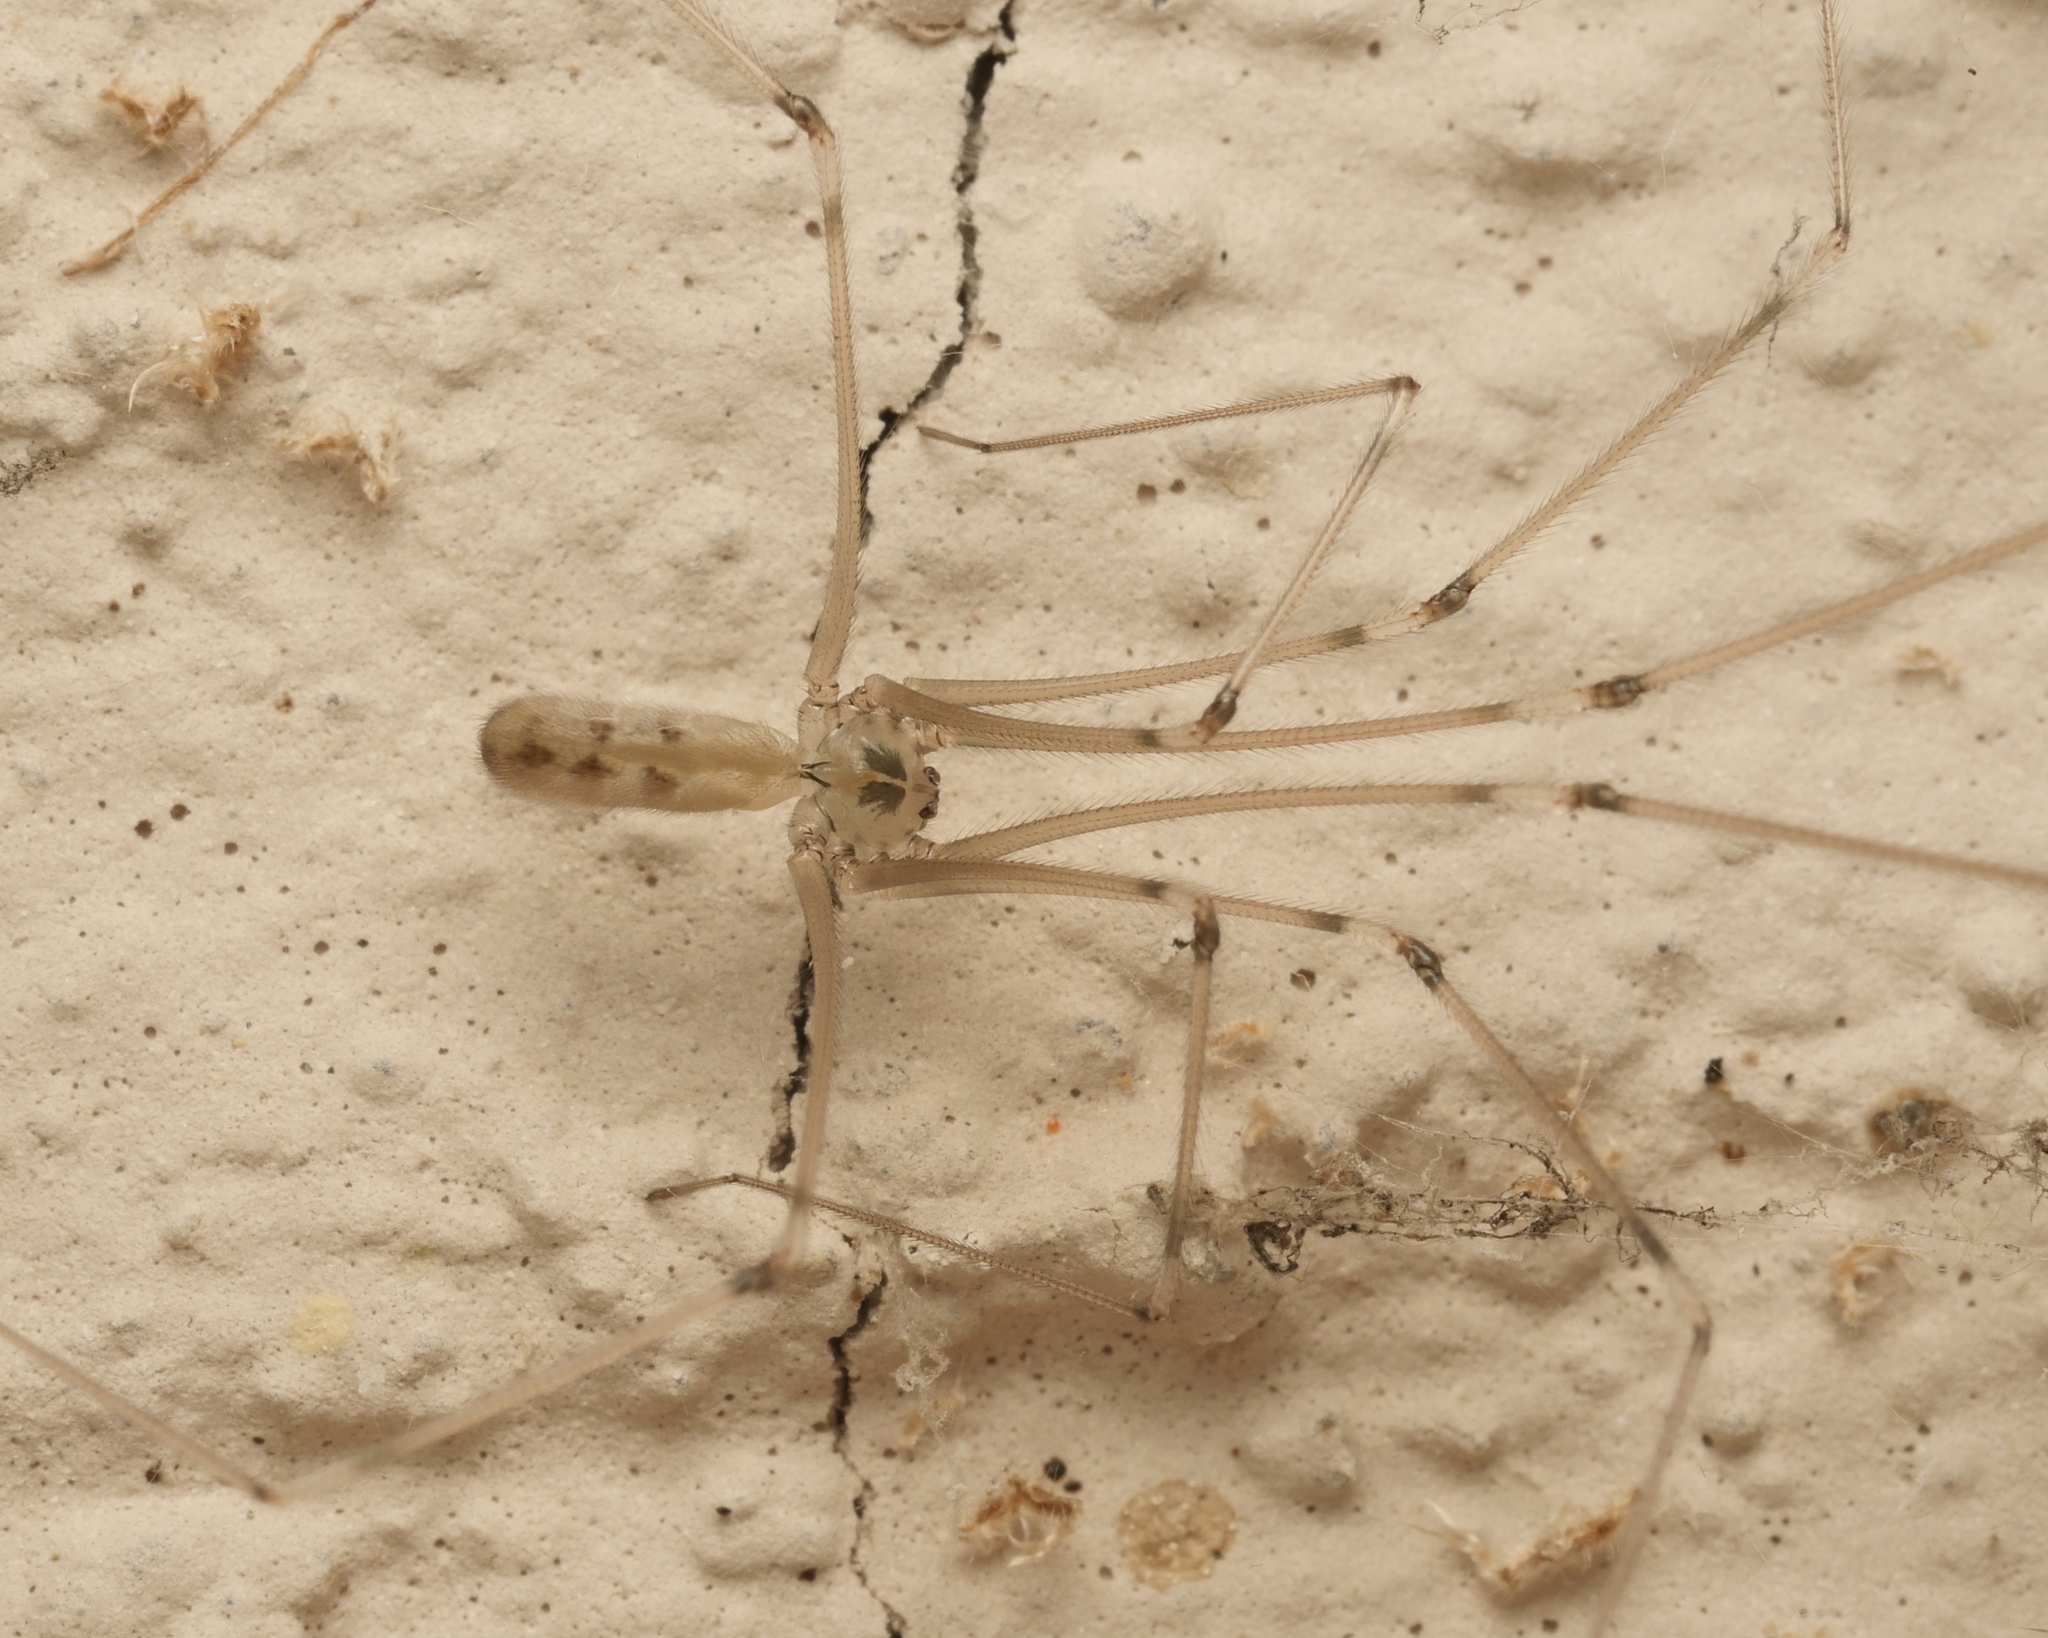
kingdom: Animalia
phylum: Arthropoda
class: Arachnida
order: Araneae
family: Pholcidae
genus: Pholcus
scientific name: Pholcus phalangioides
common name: Longbodied cellar spider
